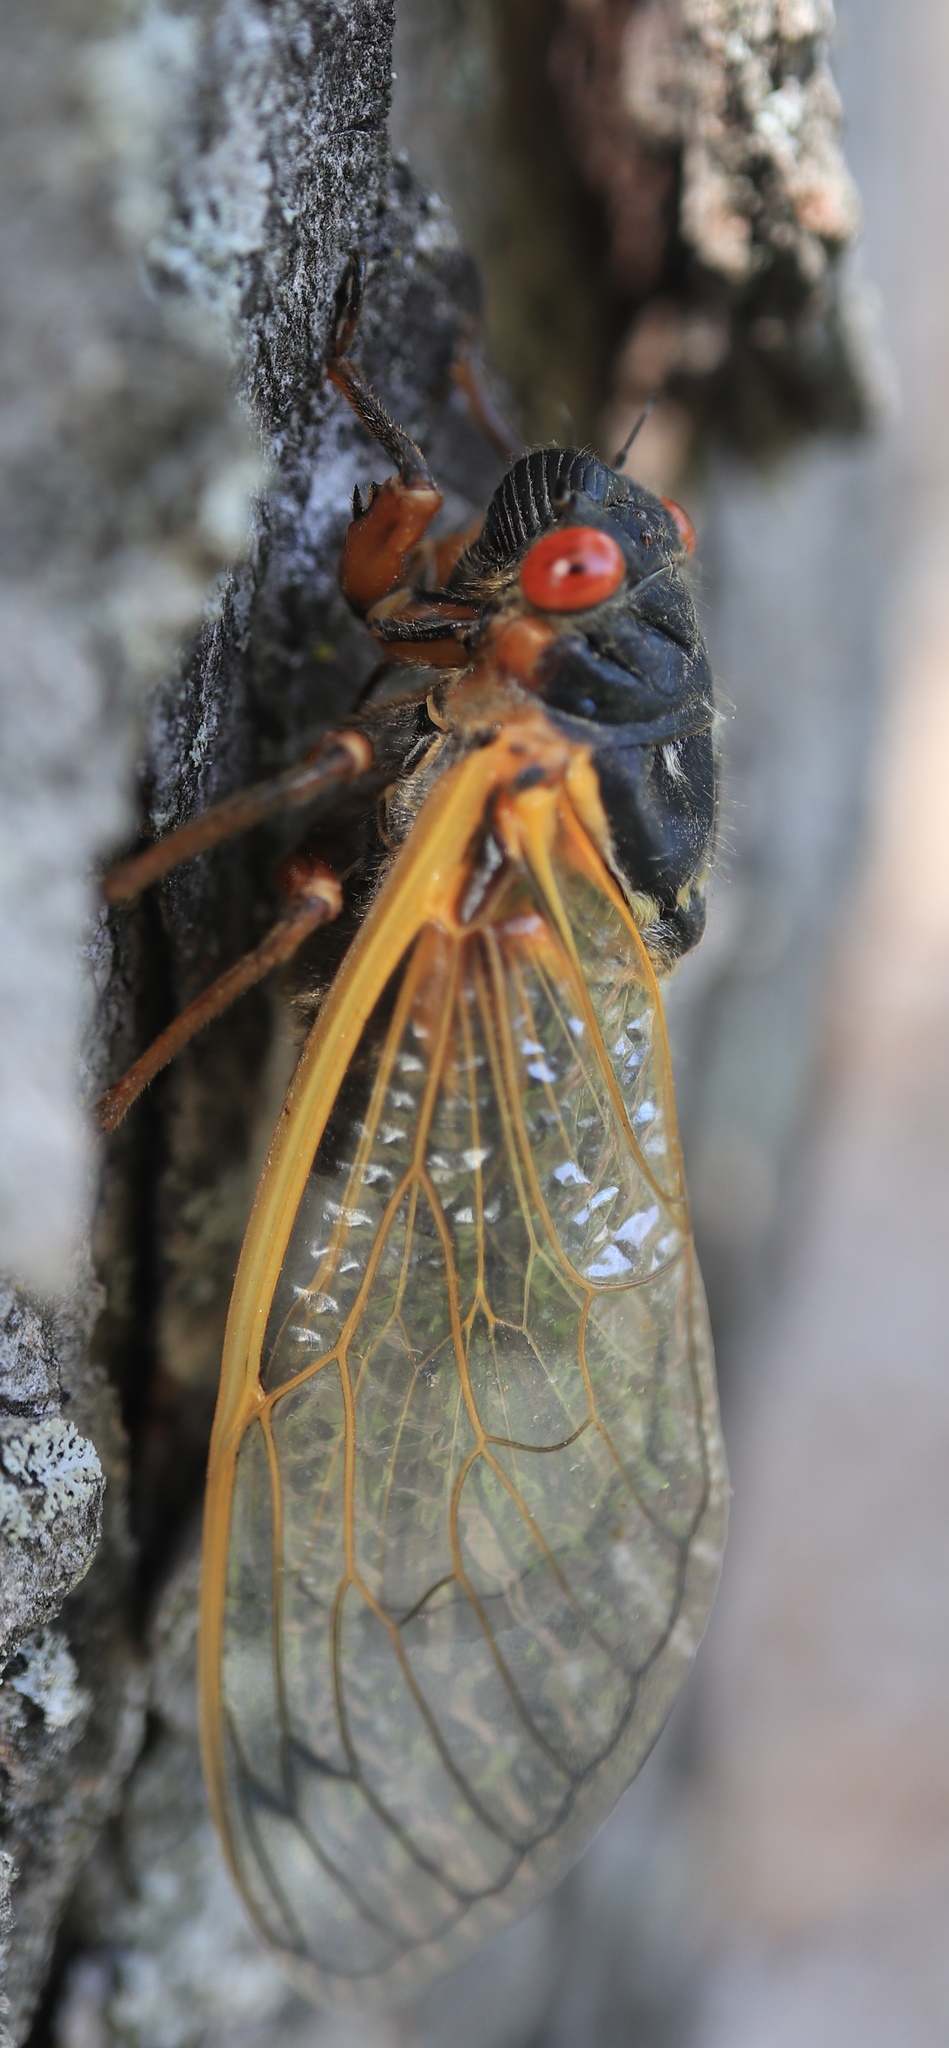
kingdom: Animalia
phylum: Arthropoda
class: Insecta
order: Hemiptera
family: Cicadidae
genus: Magicicada
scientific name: Magicicada septendecim
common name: Periodical cicada
